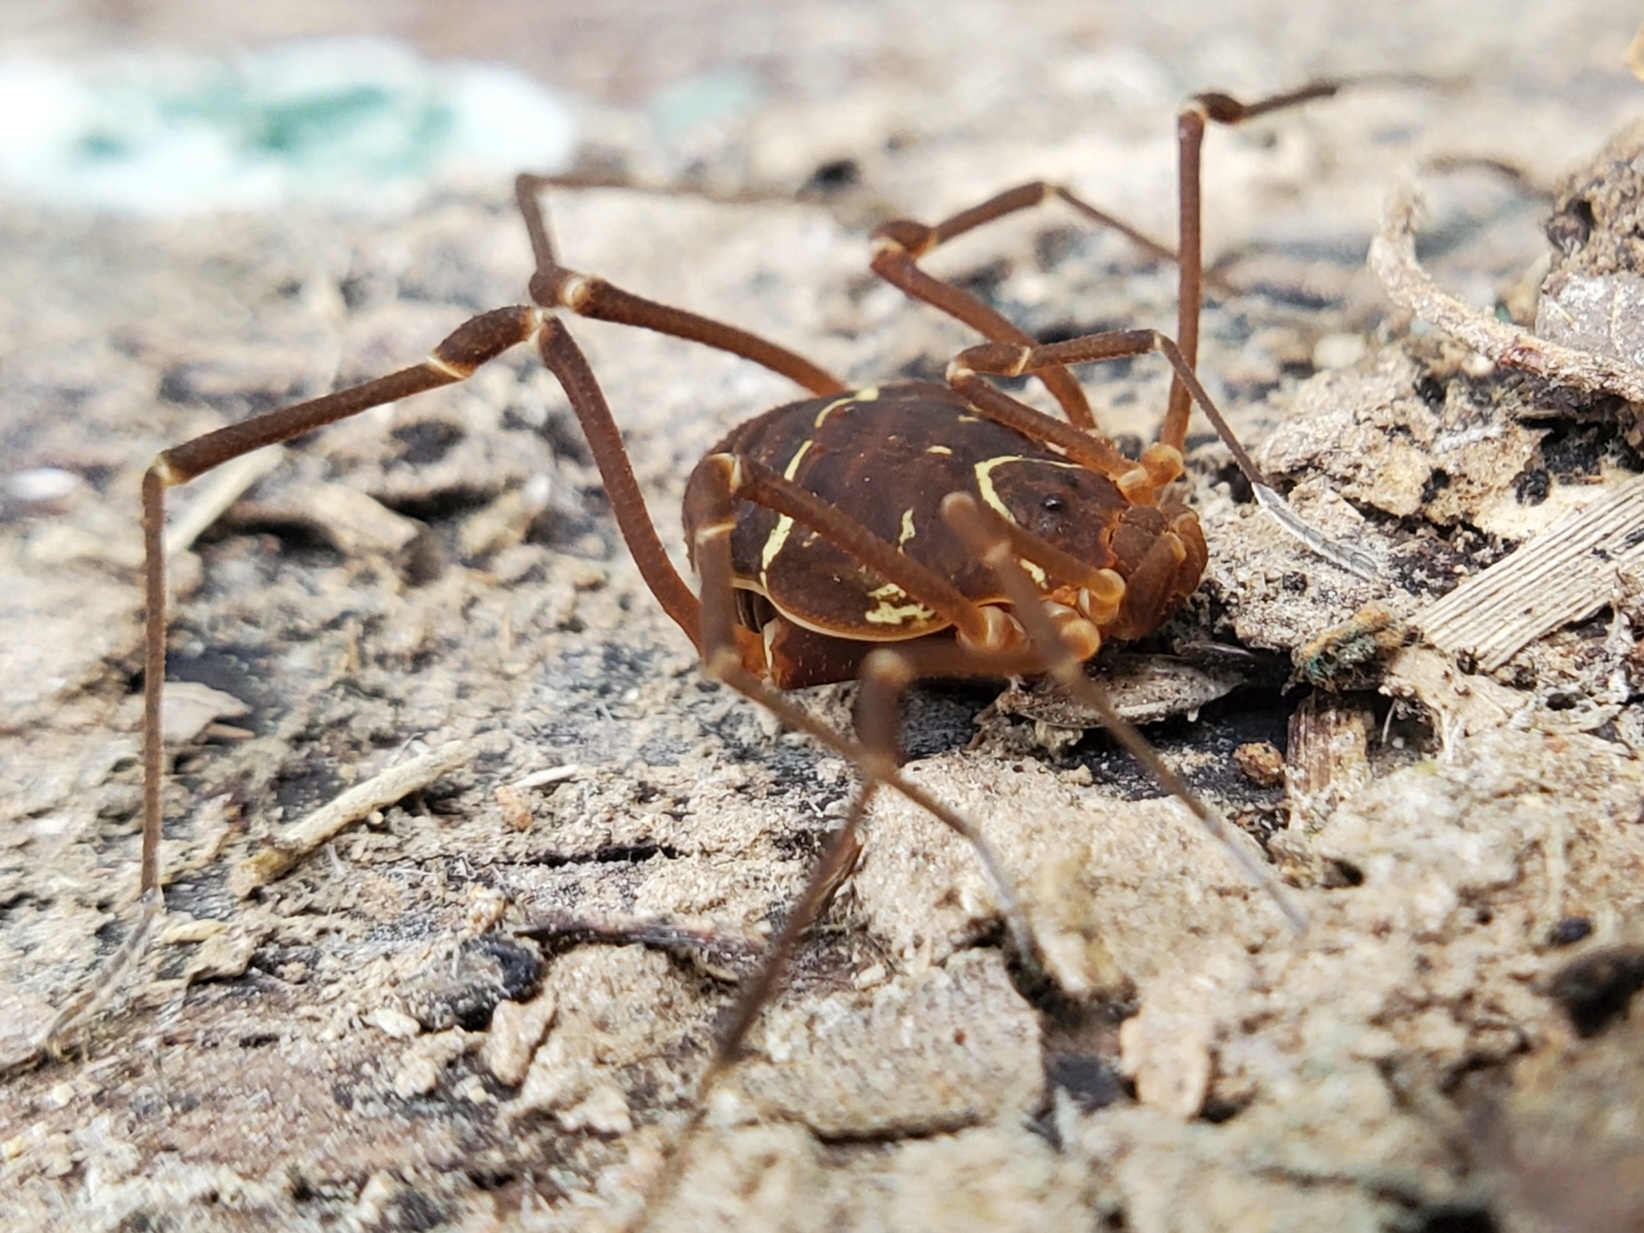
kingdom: Animalia
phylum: Arthropoda
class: Arachnida
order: Opiliones
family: Cosmetidae
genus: Libitioides
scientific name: Libitioides sayi
